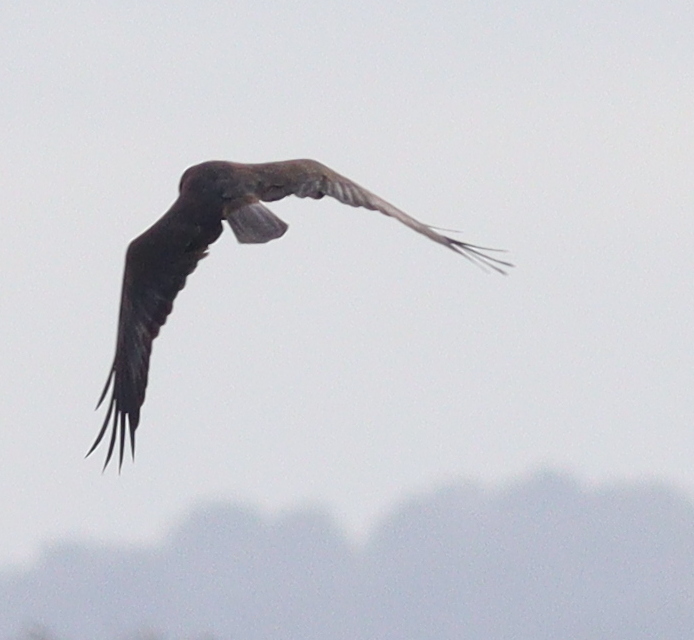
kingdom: Animalia
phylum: Chordata
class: Aves
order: Accipitriformes
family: Accipitridae
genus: Circus
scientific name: Circus aeruginosus
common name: Western marsh harrier
